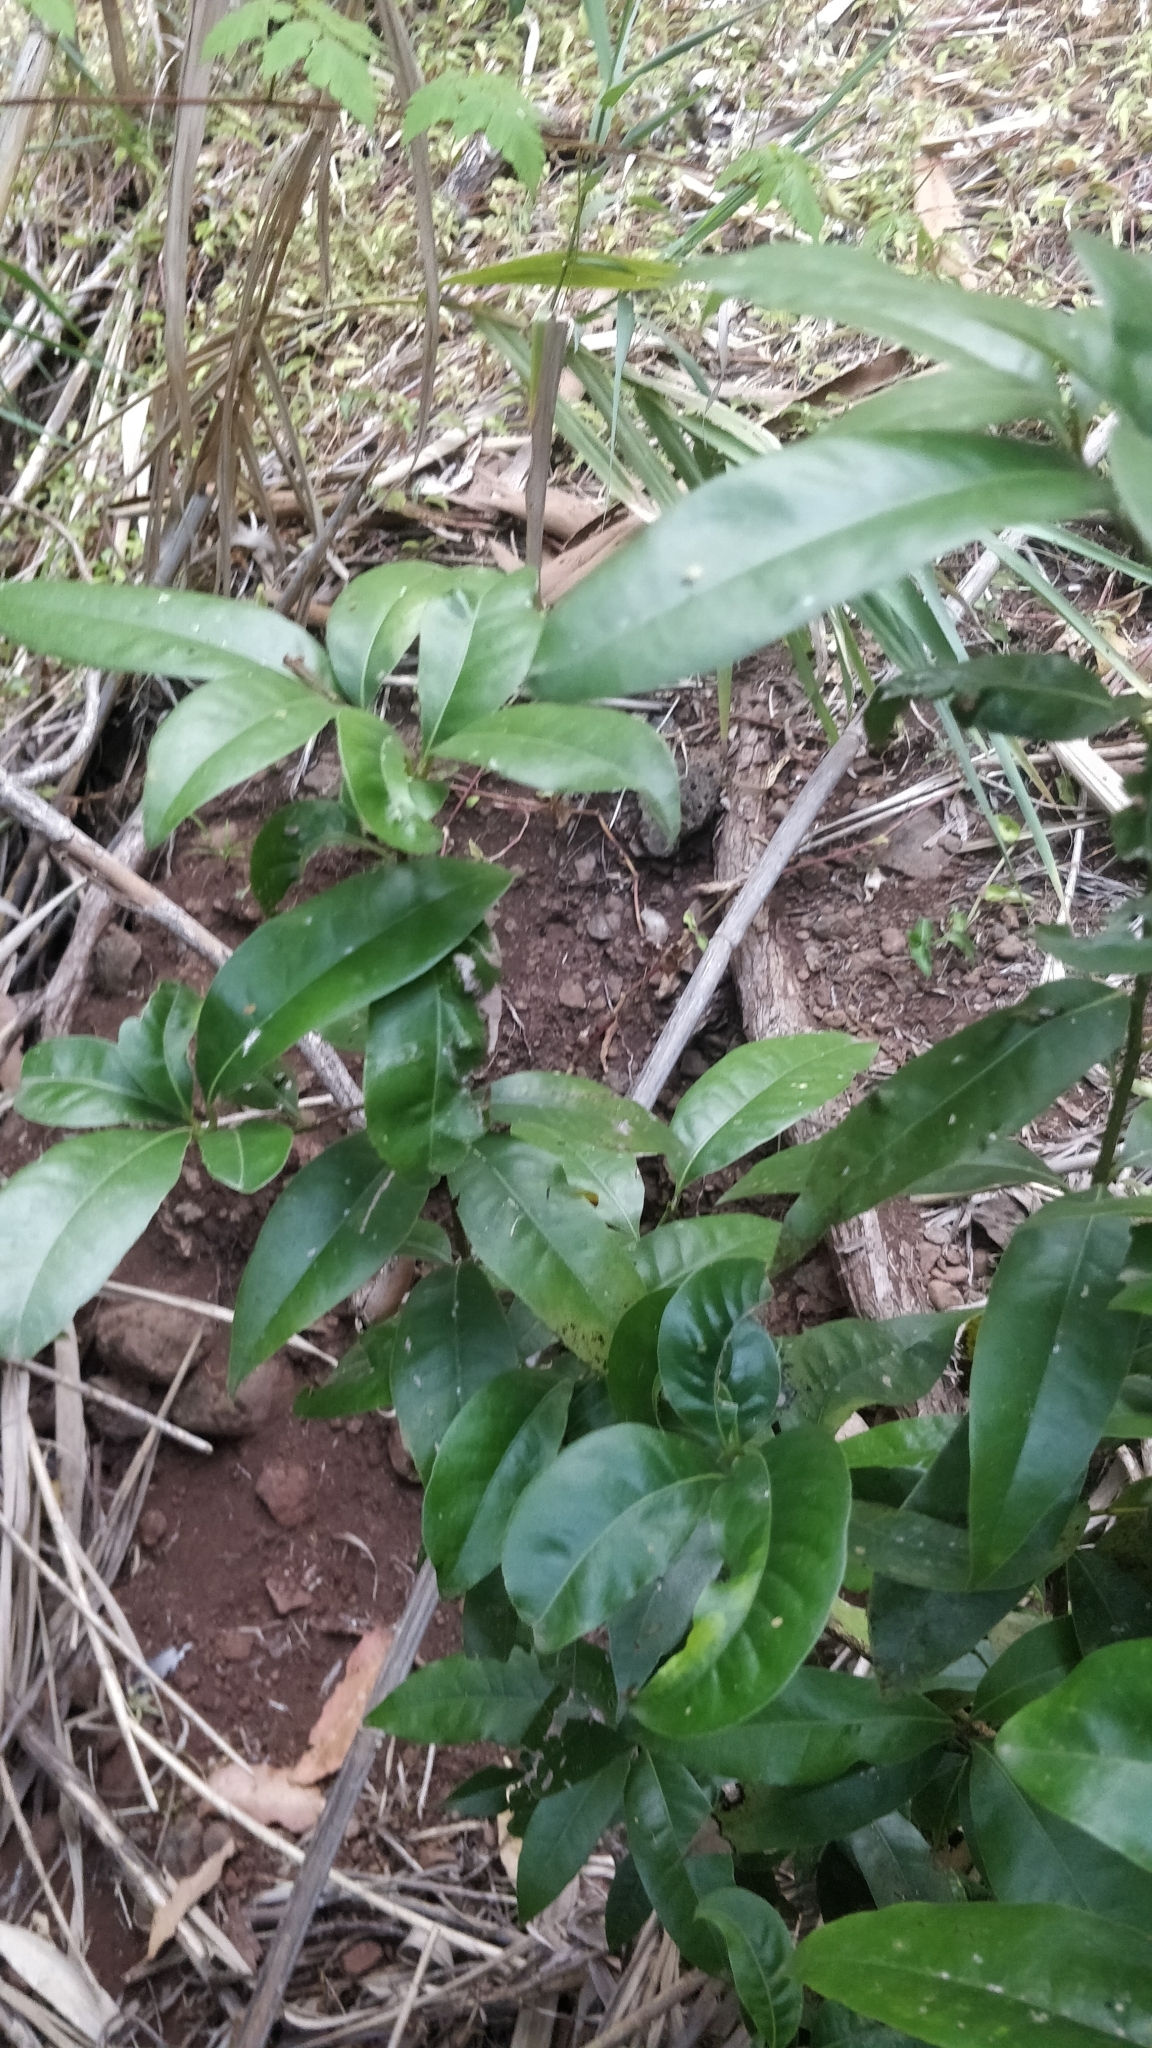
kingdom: Plantae
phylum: Tracheophyta
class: Magnoliopsida
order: Laurales
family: Lauraceae
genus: Apollonias
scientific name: Apollonias barbujana
